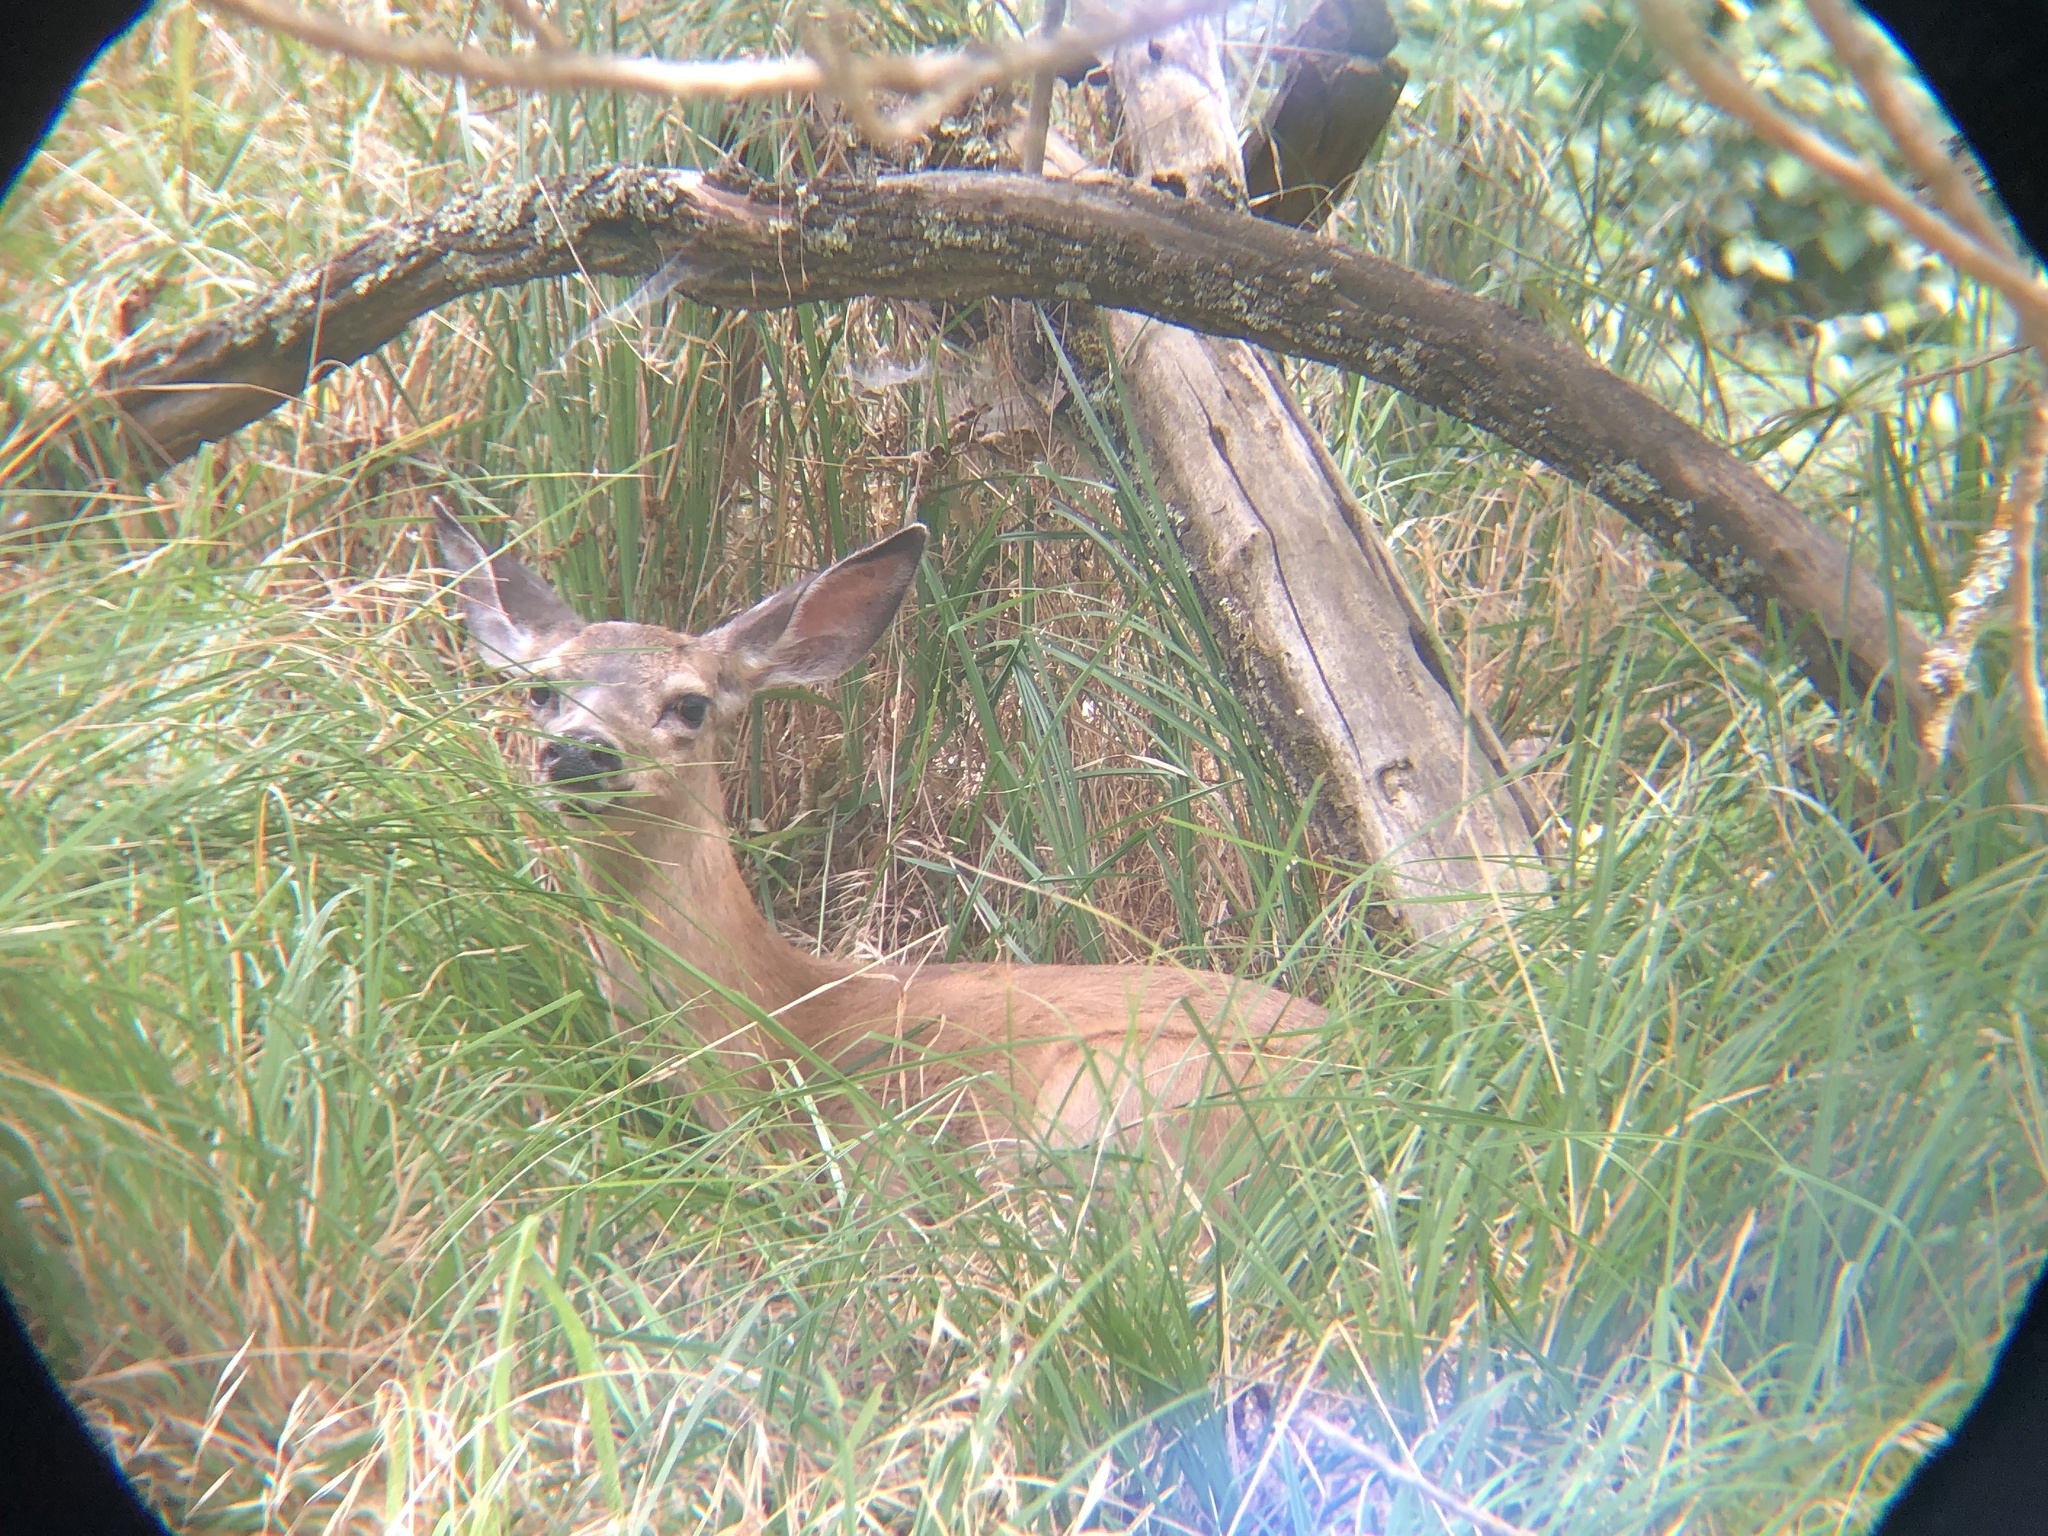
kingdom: Animalia
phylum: Chordata
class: Mammalia
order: Artiodactyla
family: Cervidae
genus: Odocoileus
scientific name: Odocoileus hemionus
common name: Mule deer
